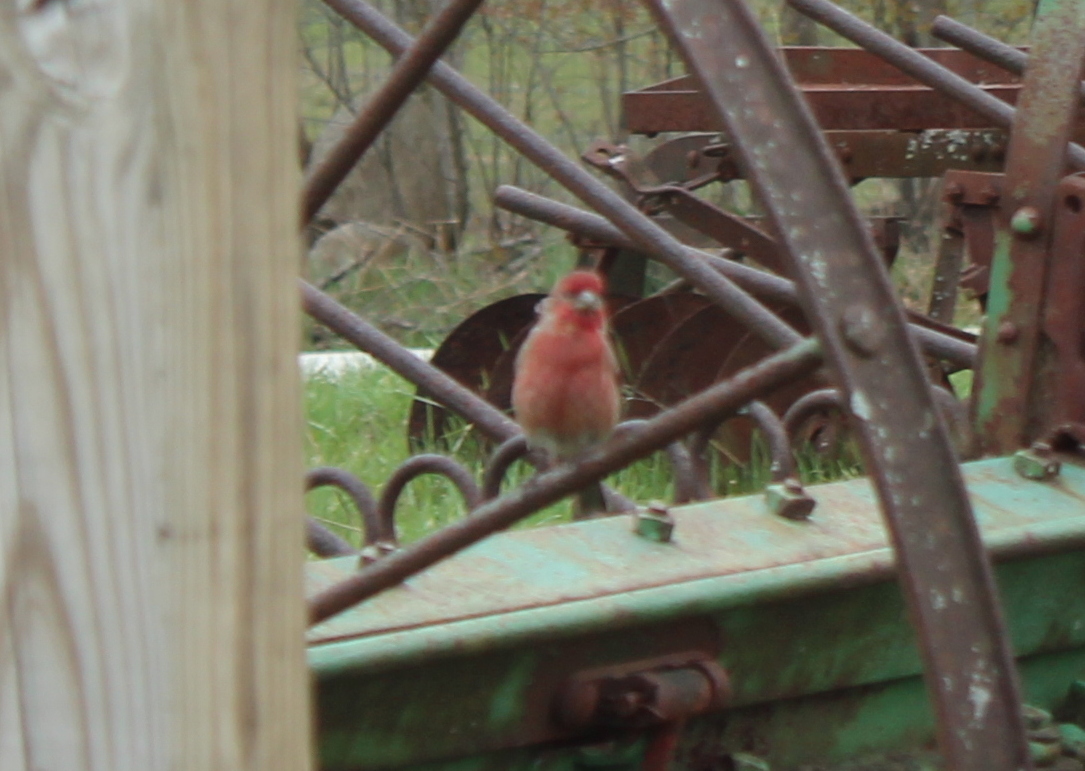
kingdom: Animalia
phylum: Chordata
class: Aves
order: Passeriformes
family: Fringillidae
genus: Haemorhous
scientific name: Haemorhous mexicanus
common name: House finch
